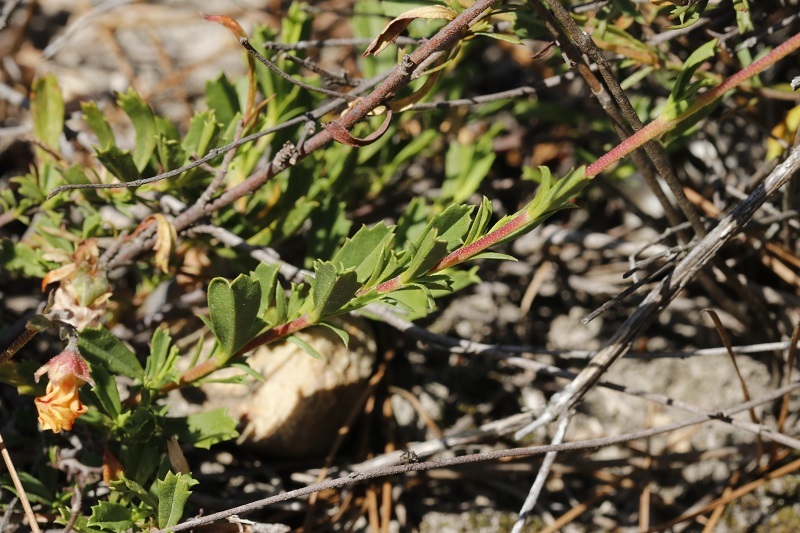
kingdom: Plantae
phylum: Tracheophyta
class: Magnoliopsida
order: Malvales
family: Malvaceae
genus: Hermannia
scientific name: Hermannia flammea
